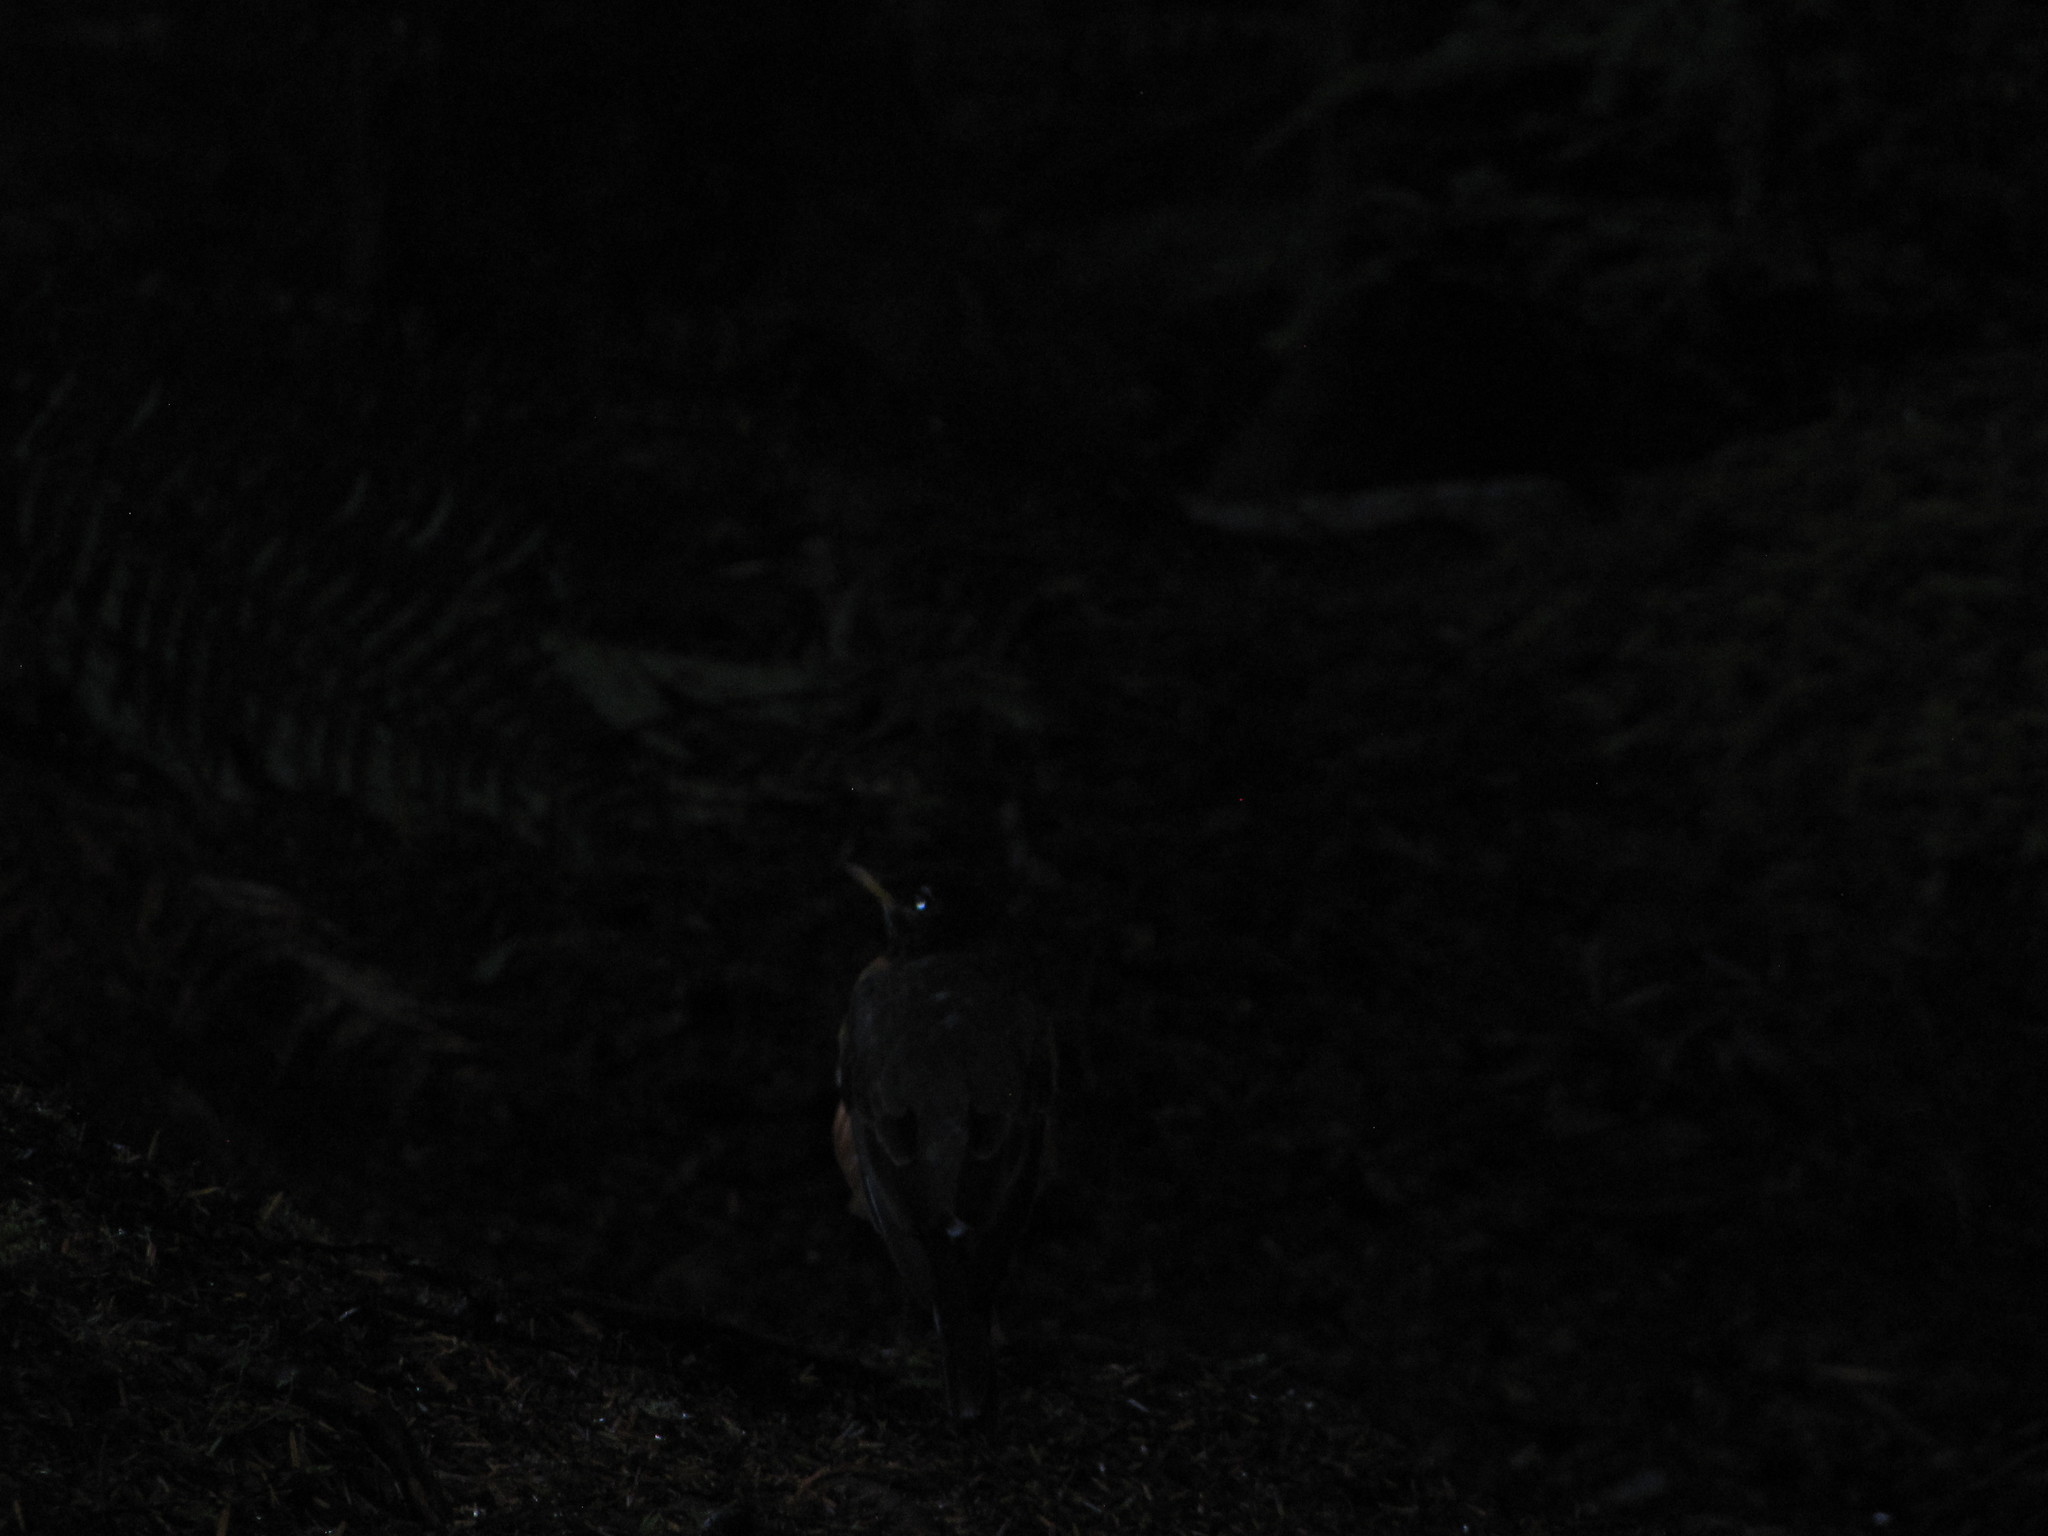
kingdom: Animalia
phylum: Chordata
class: Aves
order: Passeriformes
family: Turdidae
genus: Turdus
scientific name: Turdus migratorius
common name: American robin
